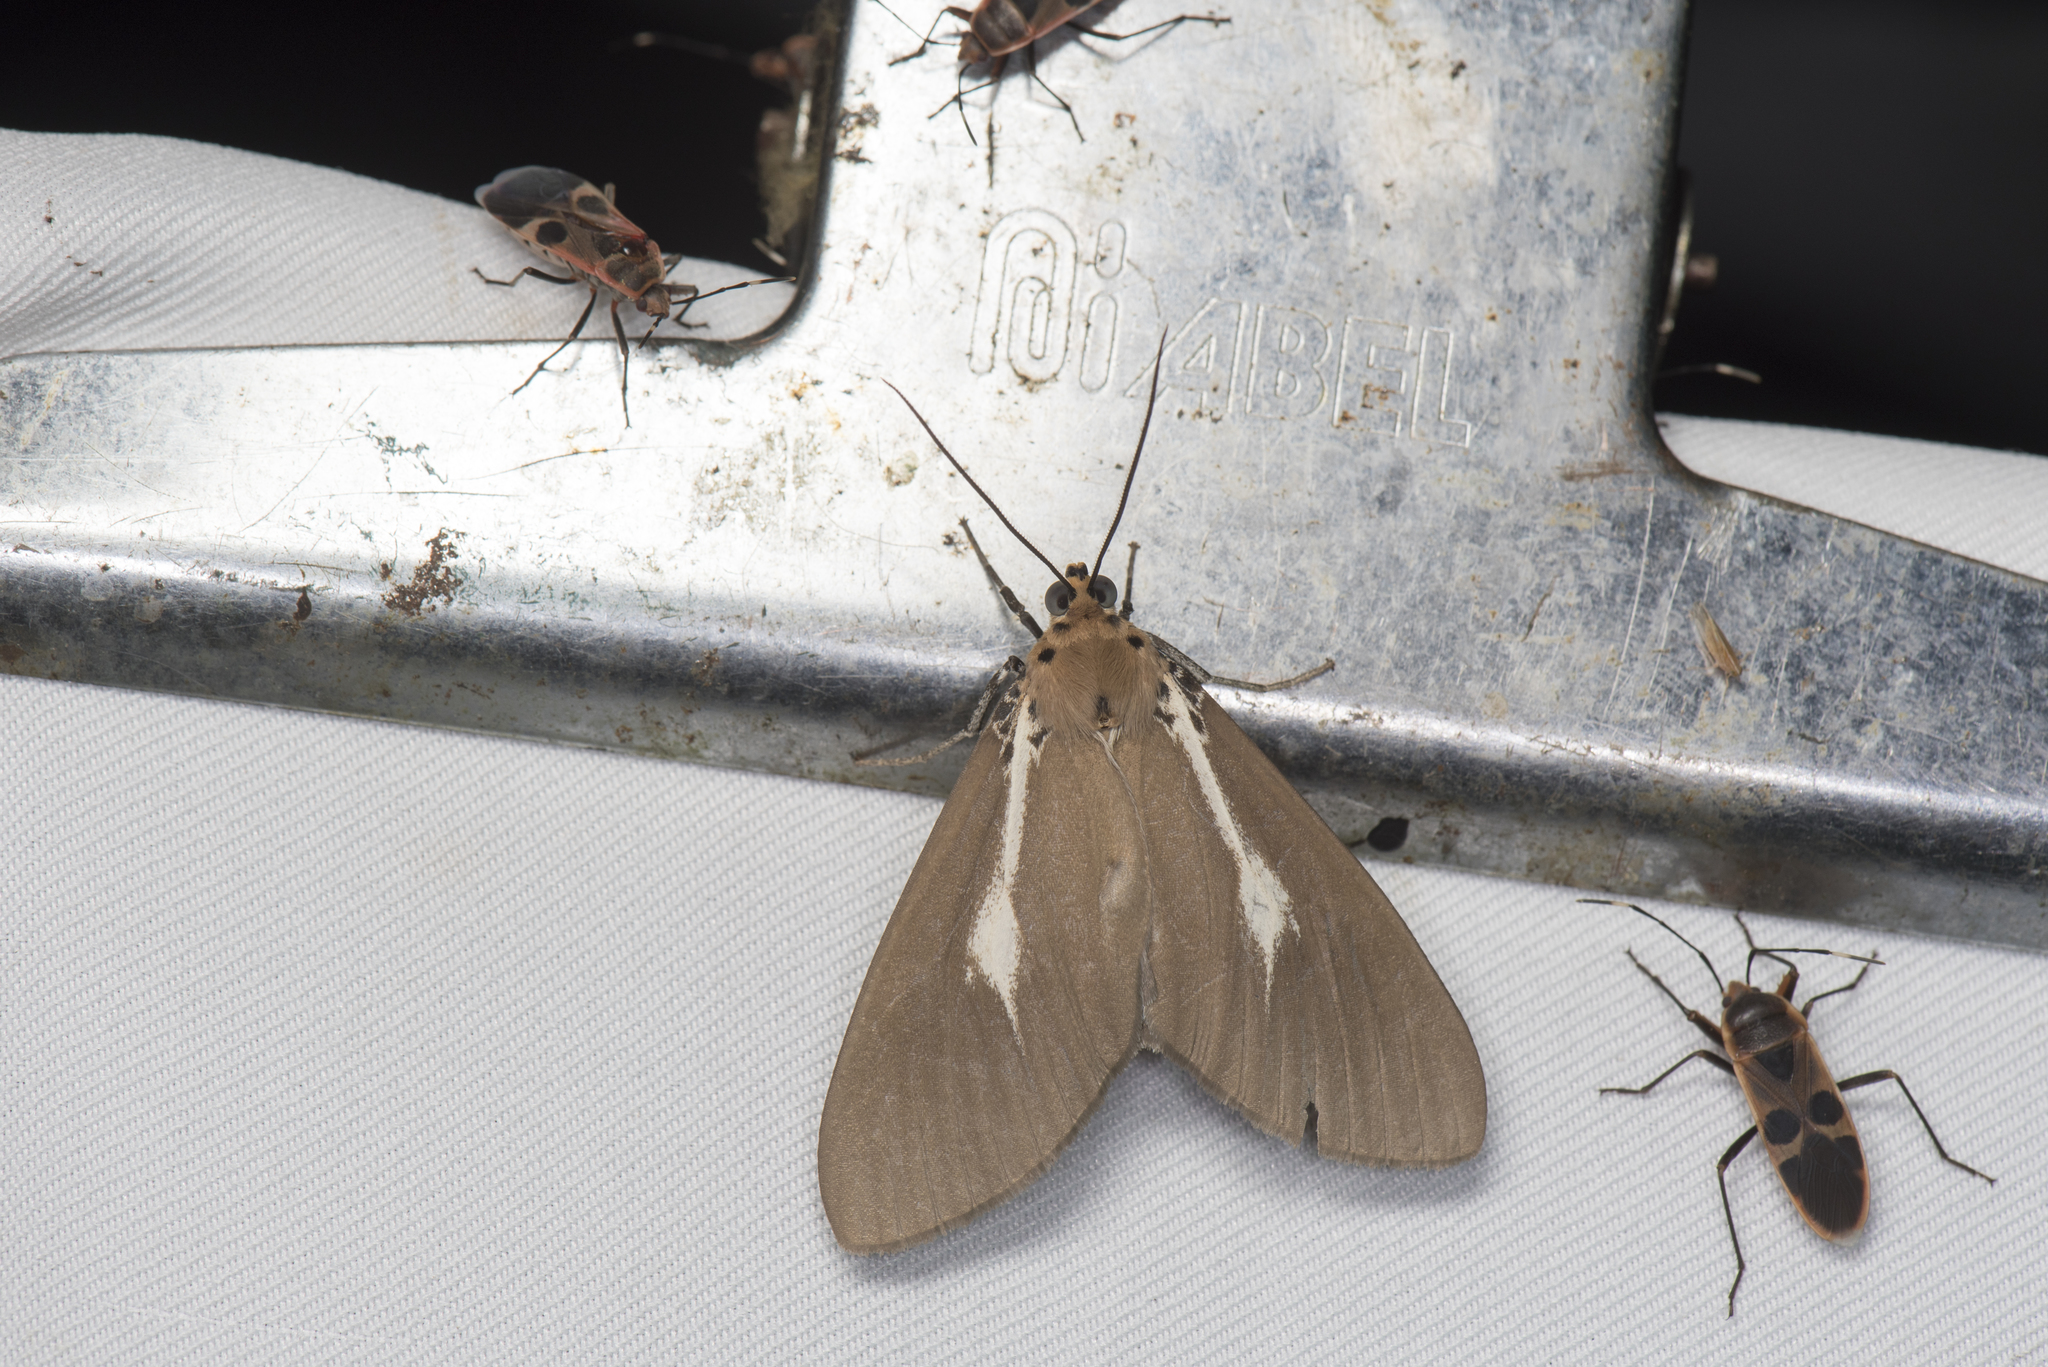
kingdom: Animalia
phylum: Arthropoda
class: Insecta
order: Lepidoptera
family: Erebidae
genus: Asota
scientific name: Asota heliconia
